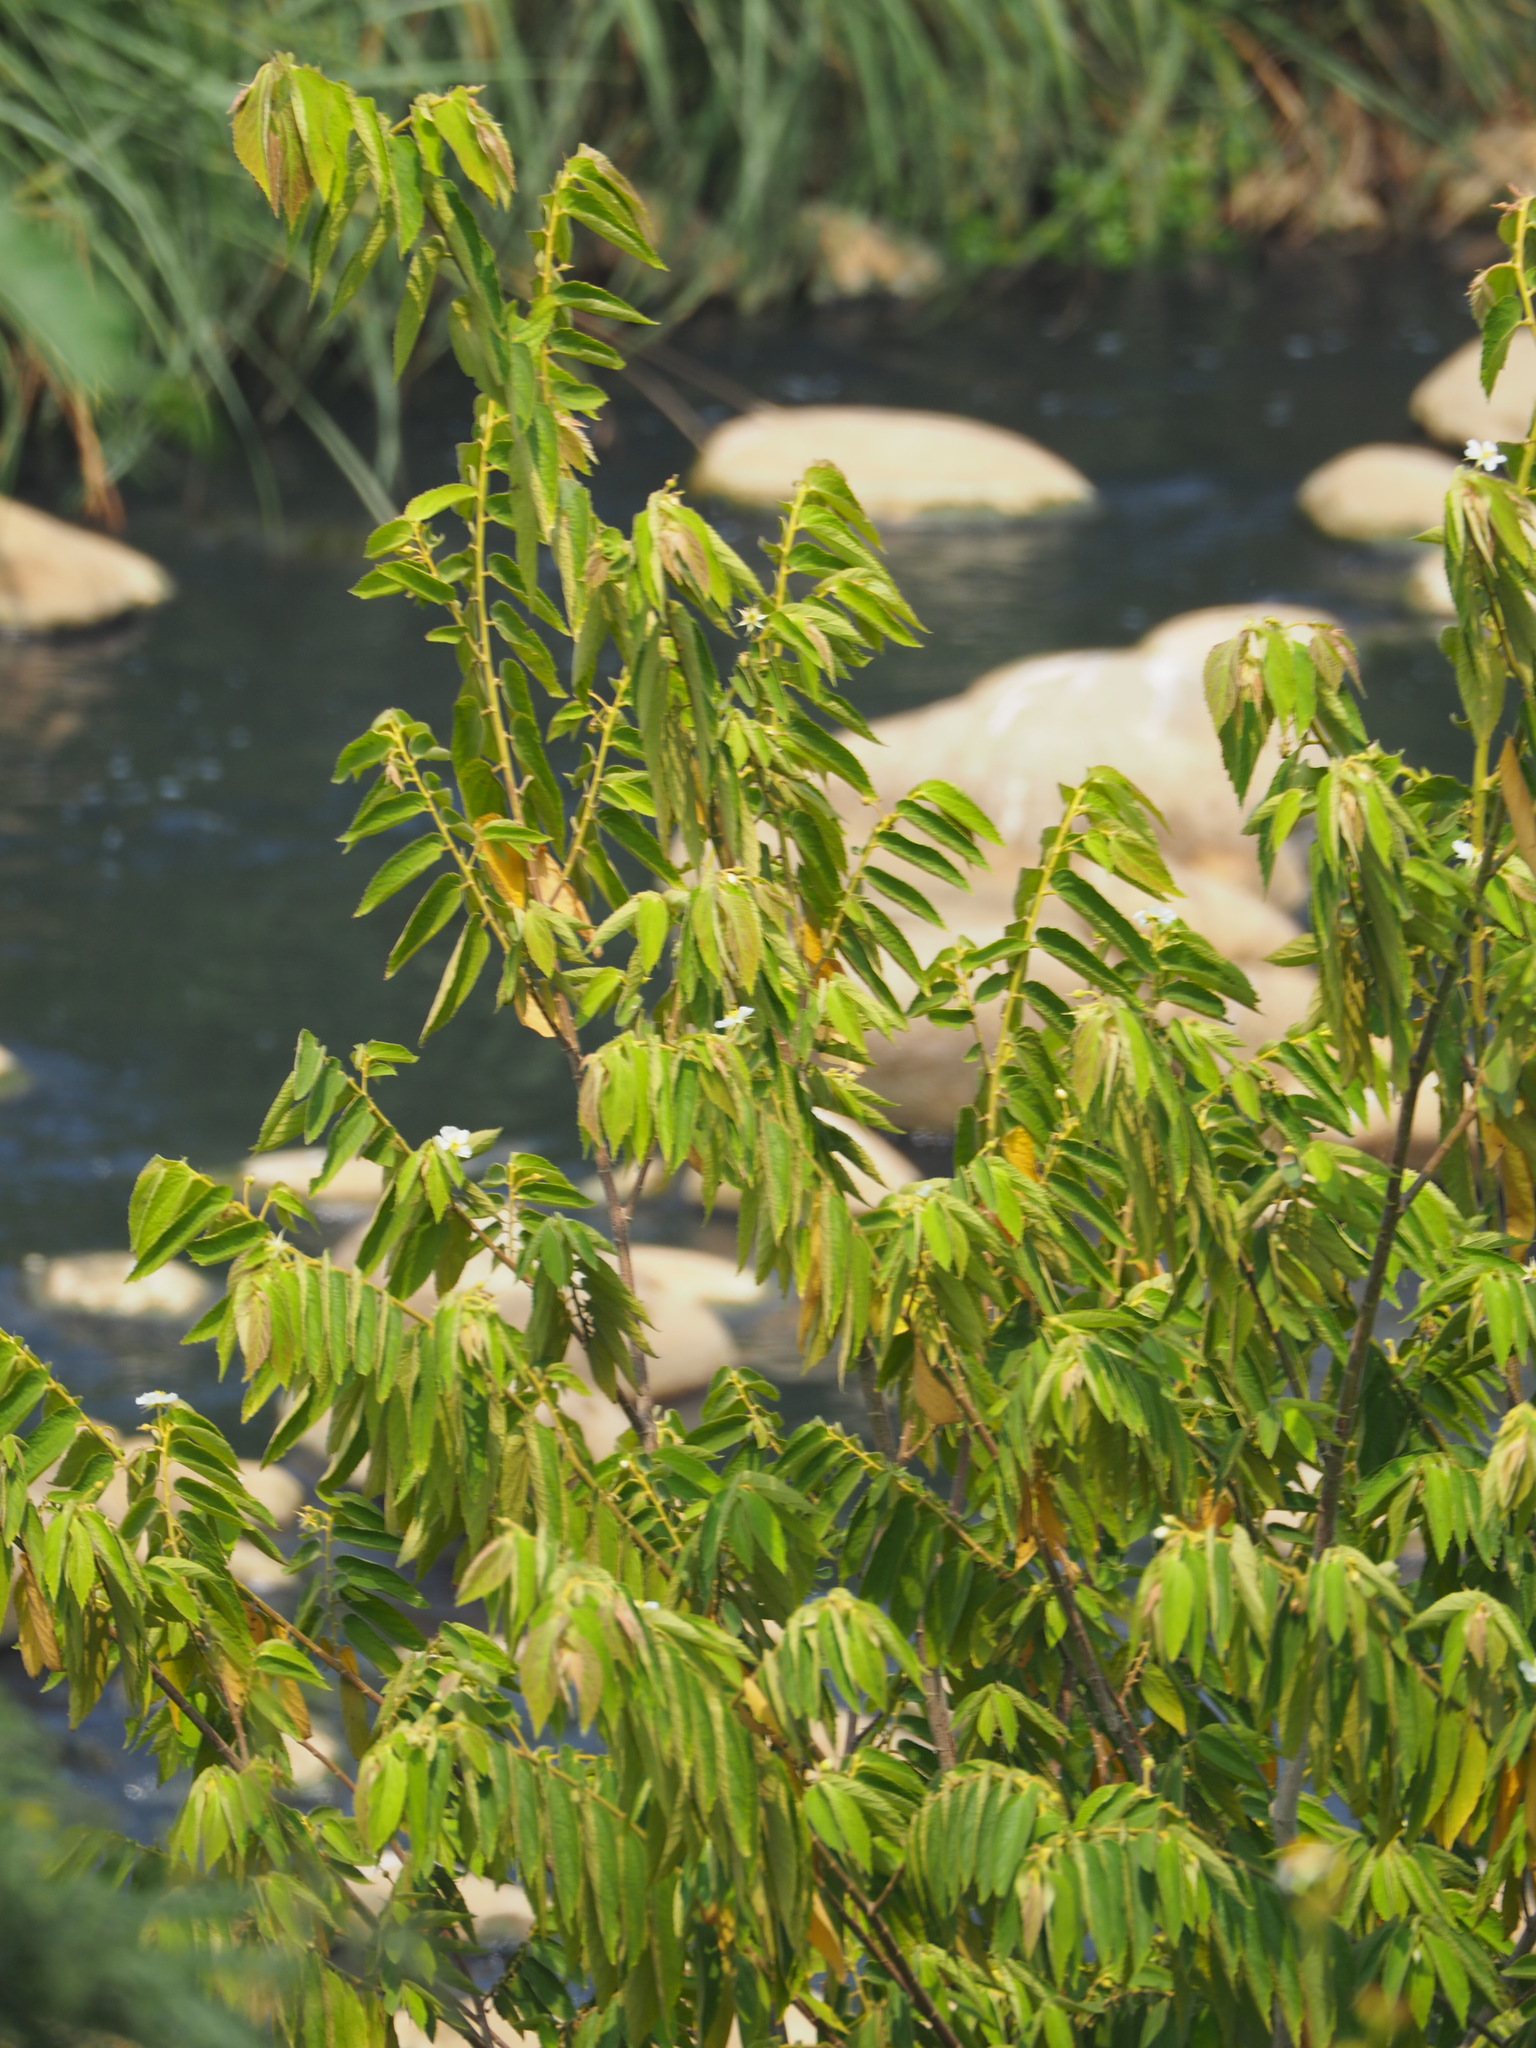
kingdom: Plantae
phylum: Tracheophyta
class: Magnoliopsida
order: Malvales
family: Muntingiaceae
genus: Muntingia
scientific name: Muntingia calabura
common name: Strawberrytree
